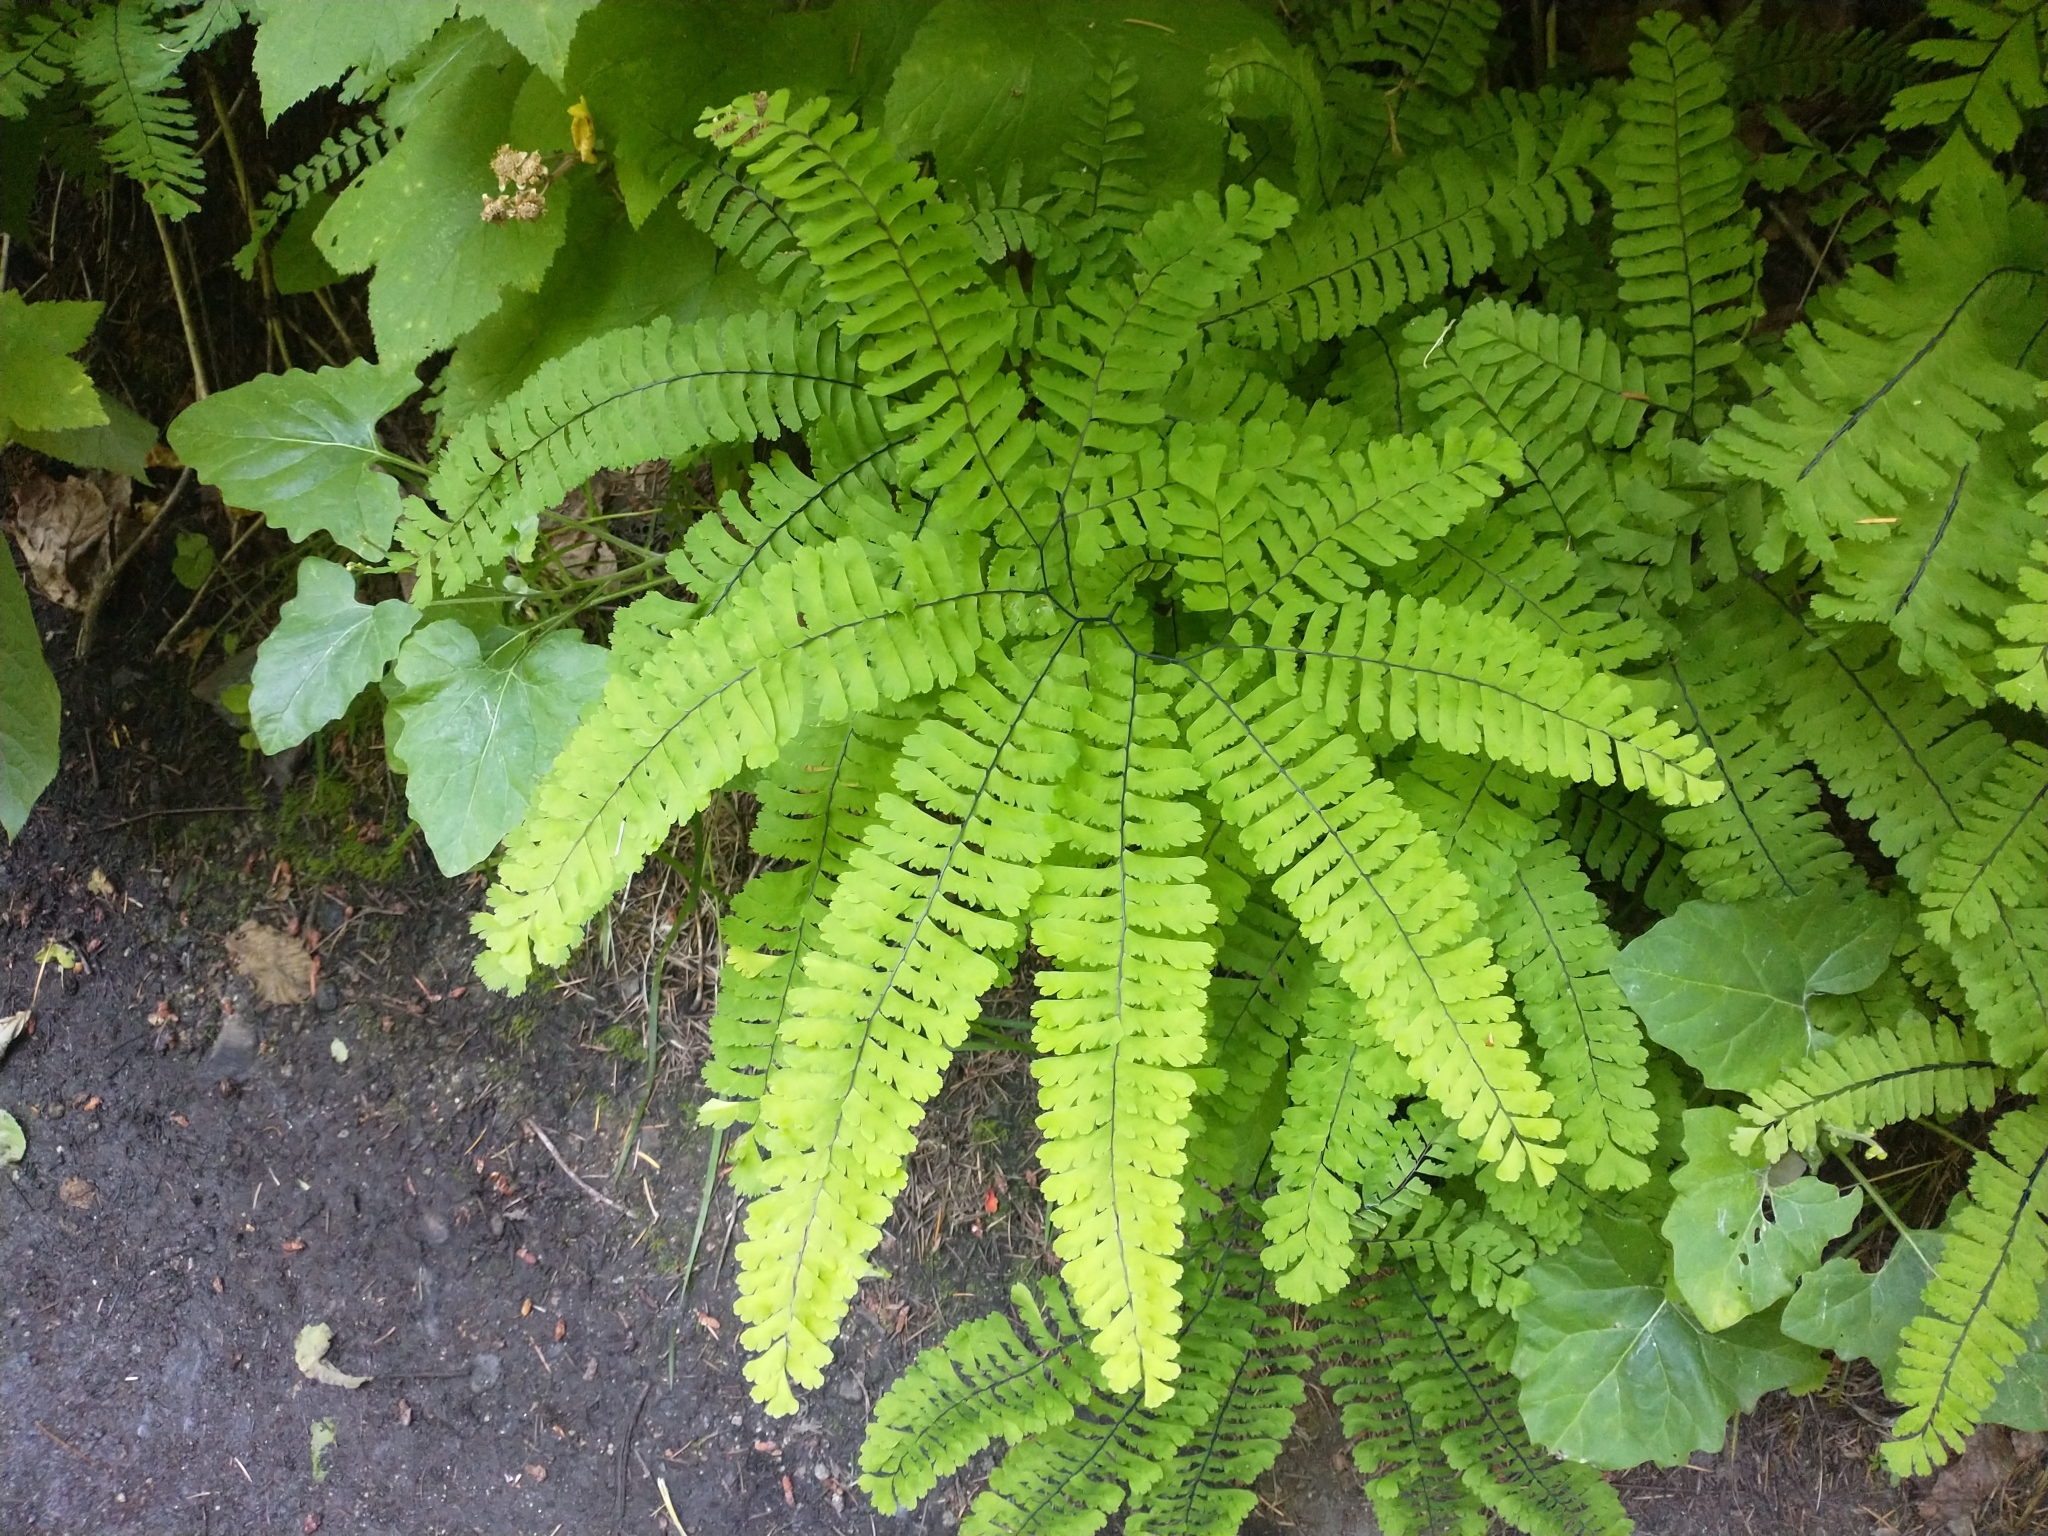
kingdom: Plantae
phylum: Tracheophyta
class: Polypodiopsida
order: Polypodiales
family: Pteridaceae
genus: Adiantum
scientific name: Adiantum aleuticum
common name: Aleutian maidenhair fern
